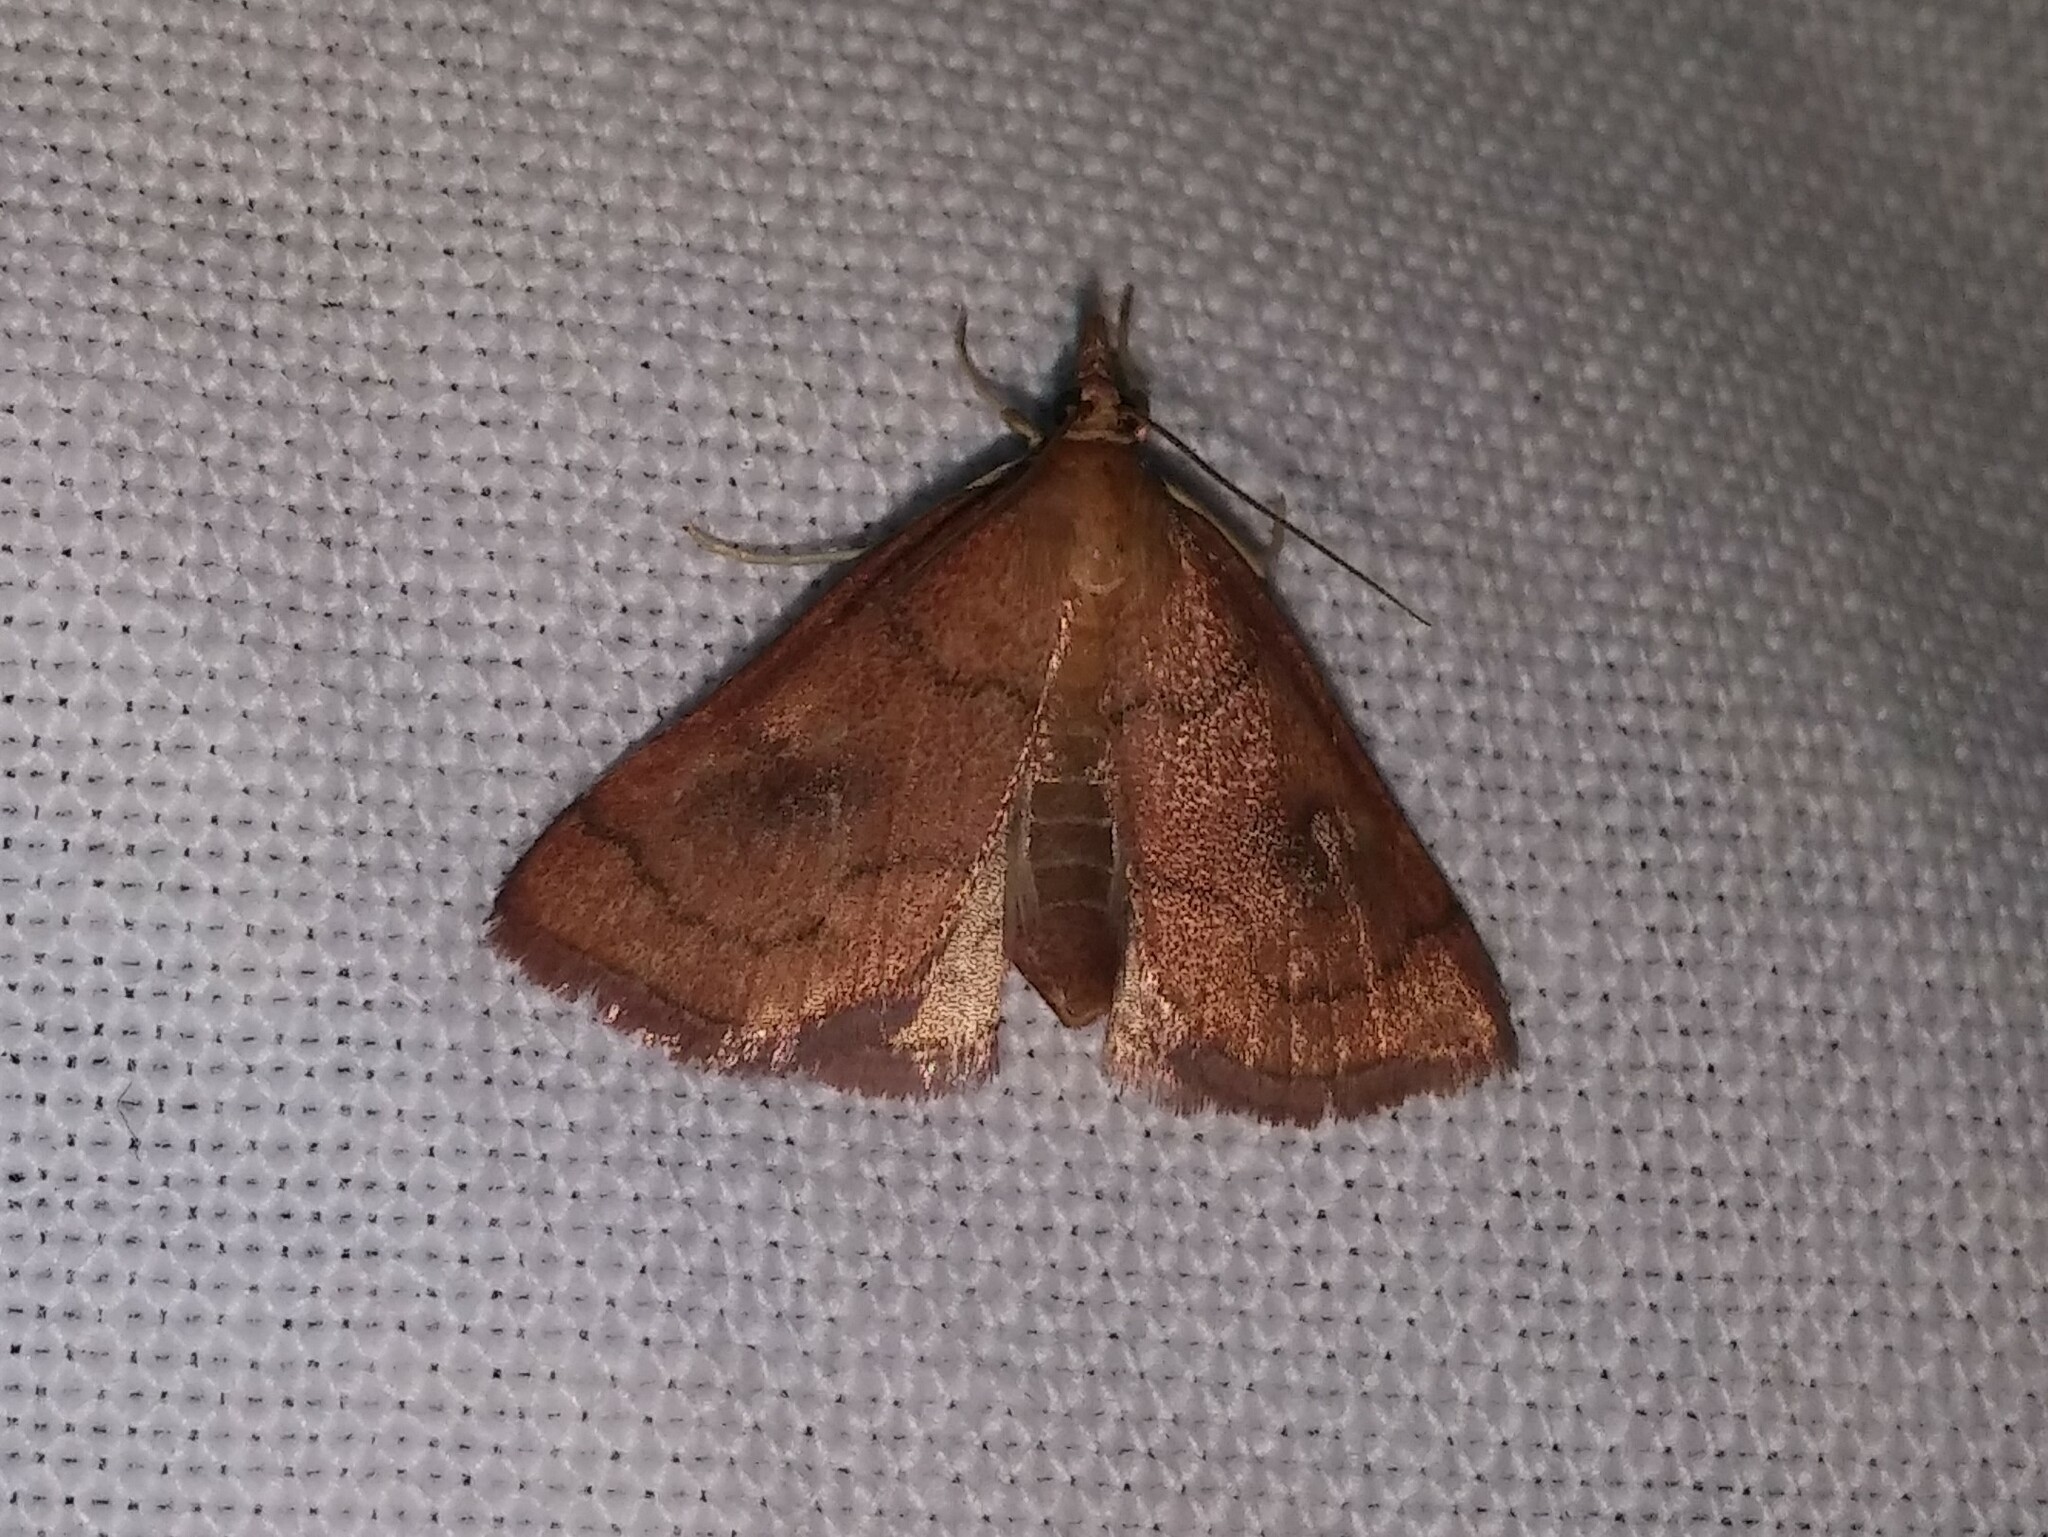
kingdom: Animalia
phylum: Arthropoda
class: Insecta
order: Lepidoptera
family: Crambidae
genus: Fumibotys
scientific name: Fumibotys fumalis
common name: Mint root borer moth
